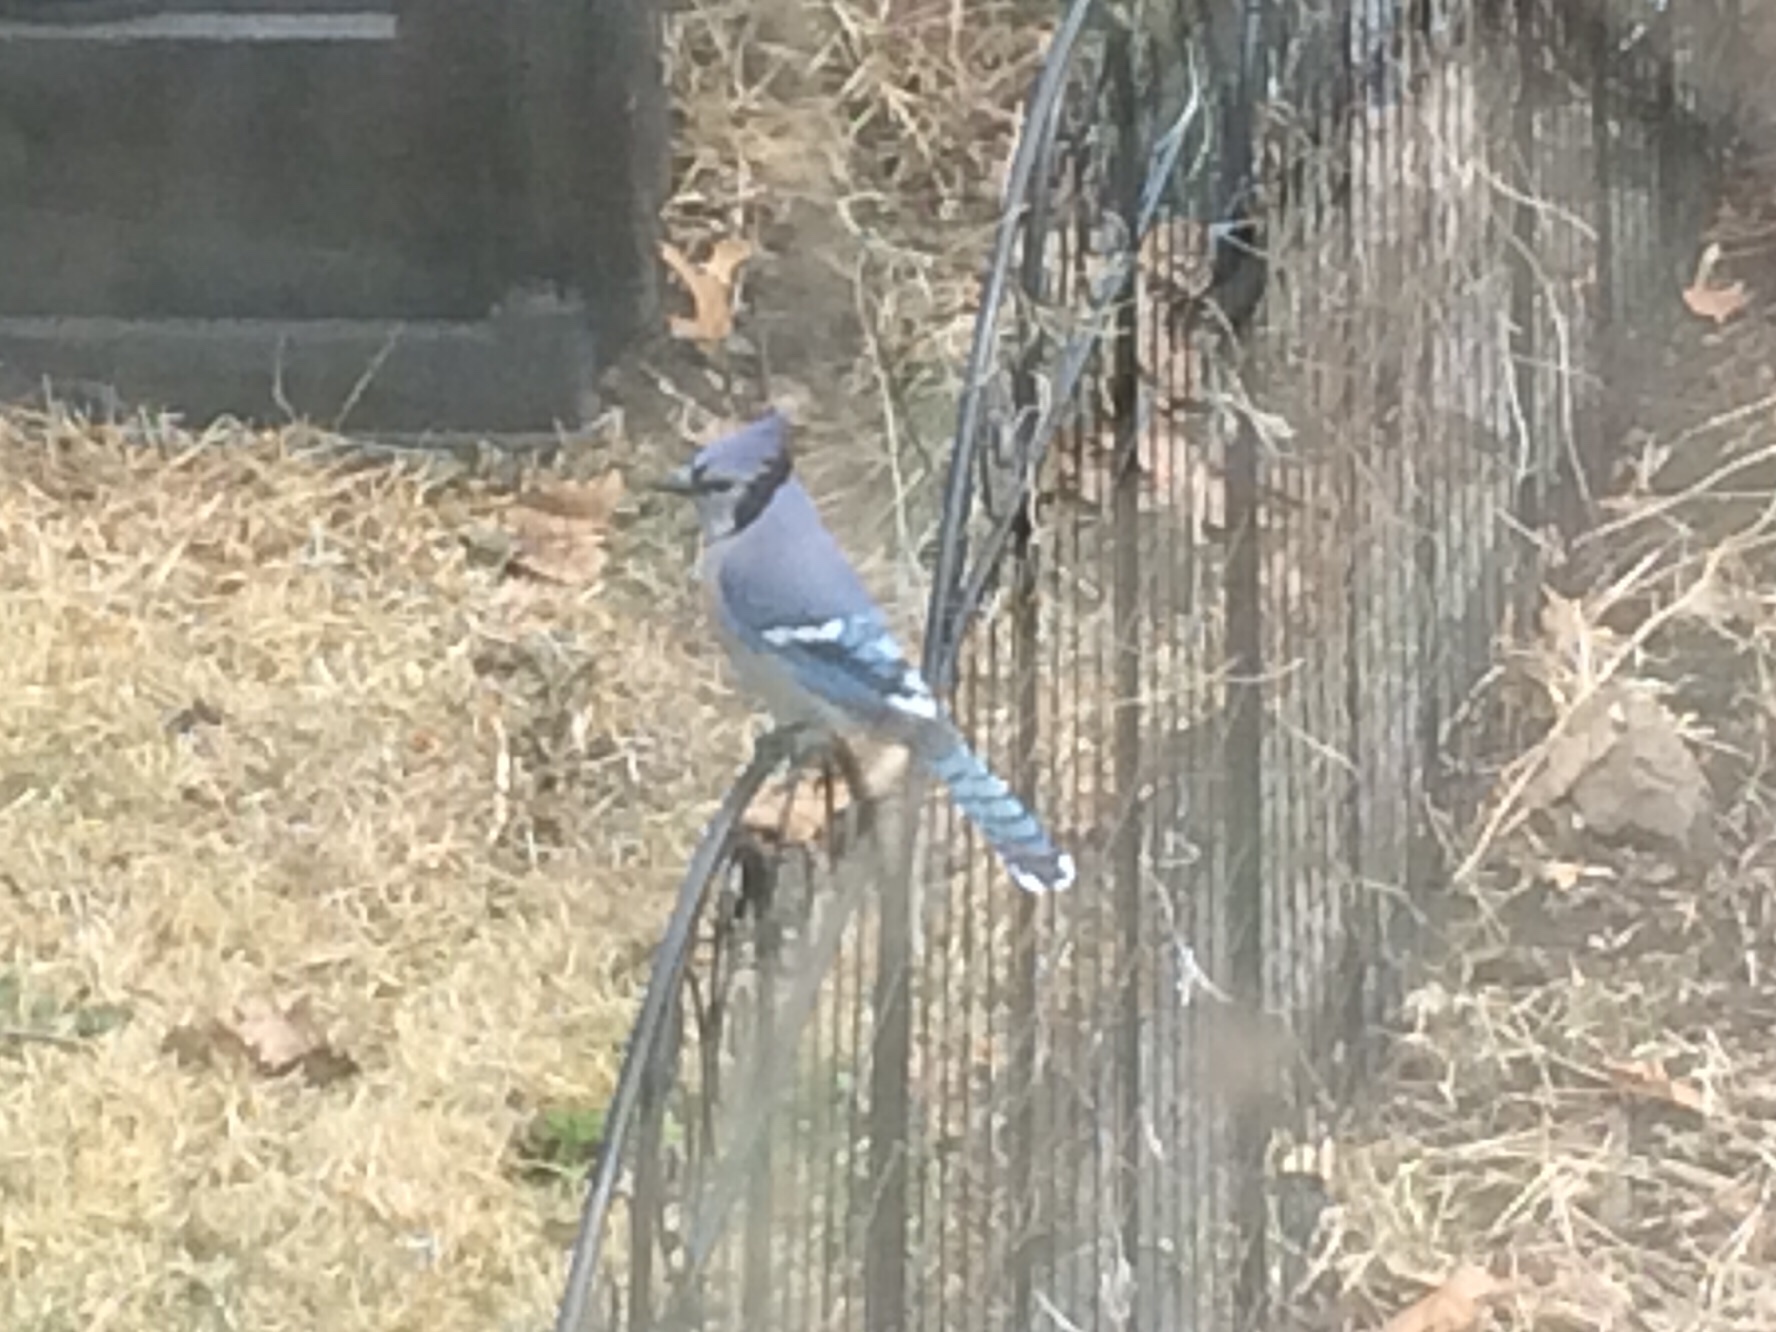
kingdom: Animalia
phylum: Chordata
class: Aves
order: Passeriformes
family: Corvidae
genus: Cyanocitta
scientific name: Cyanocitta cristata
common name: Blue jay
